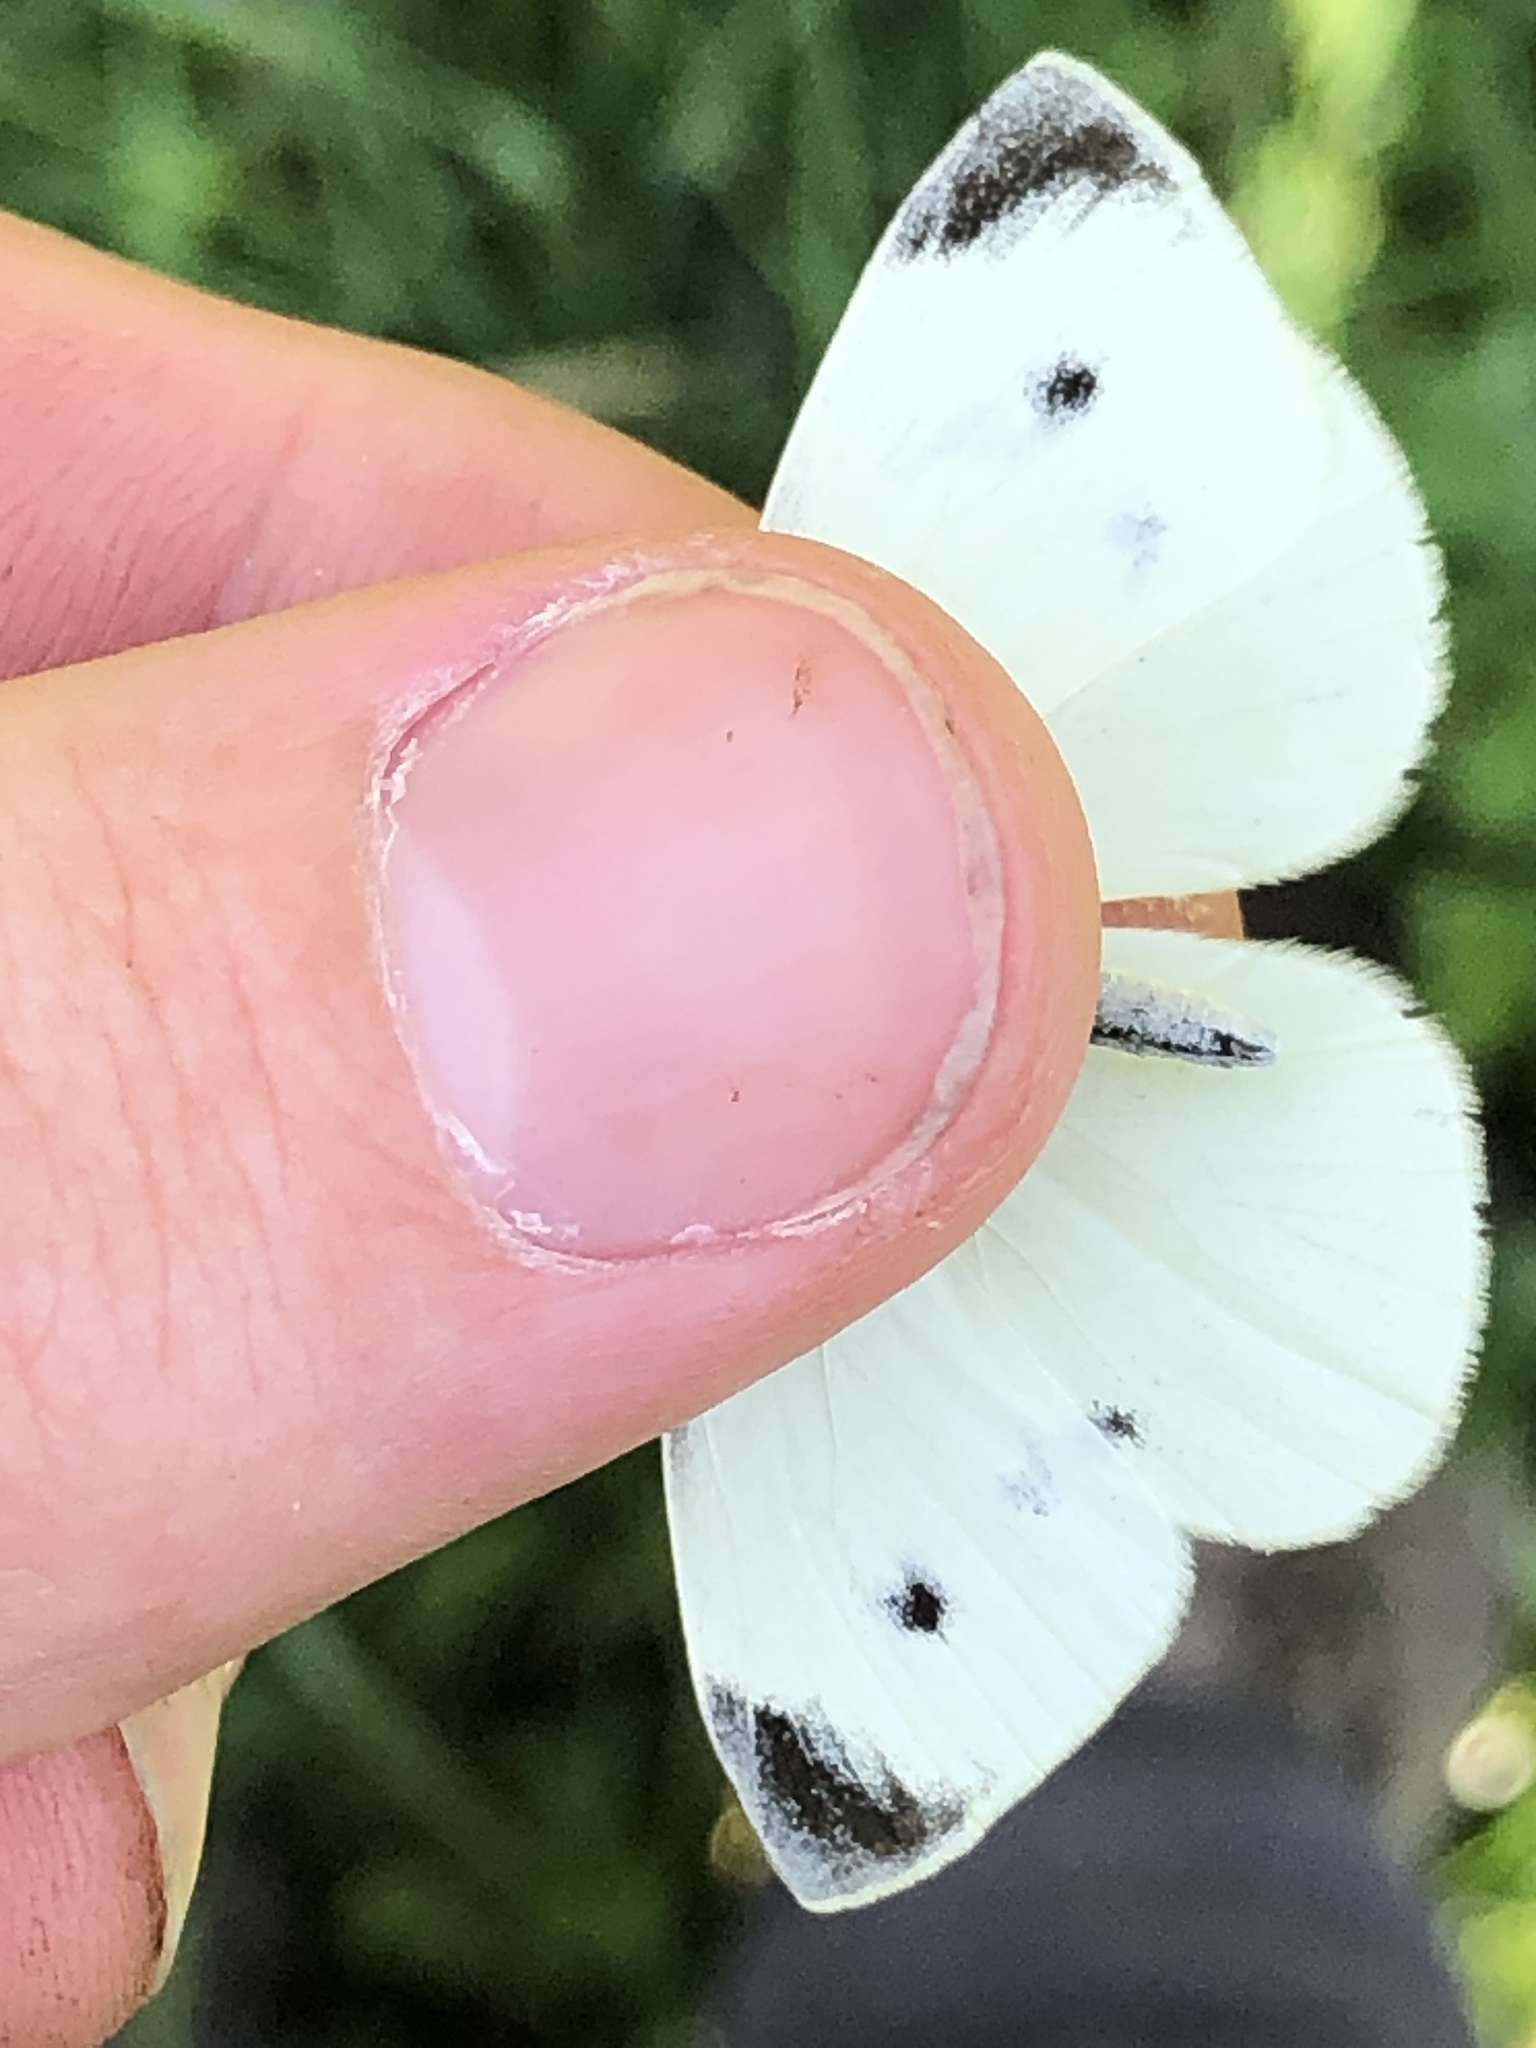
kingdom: Animalia
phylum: Arthropoda
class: Insecta
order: Lepidoptera
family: Pieridae
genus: Pieris
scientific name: Pieris rapae
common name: Small white
